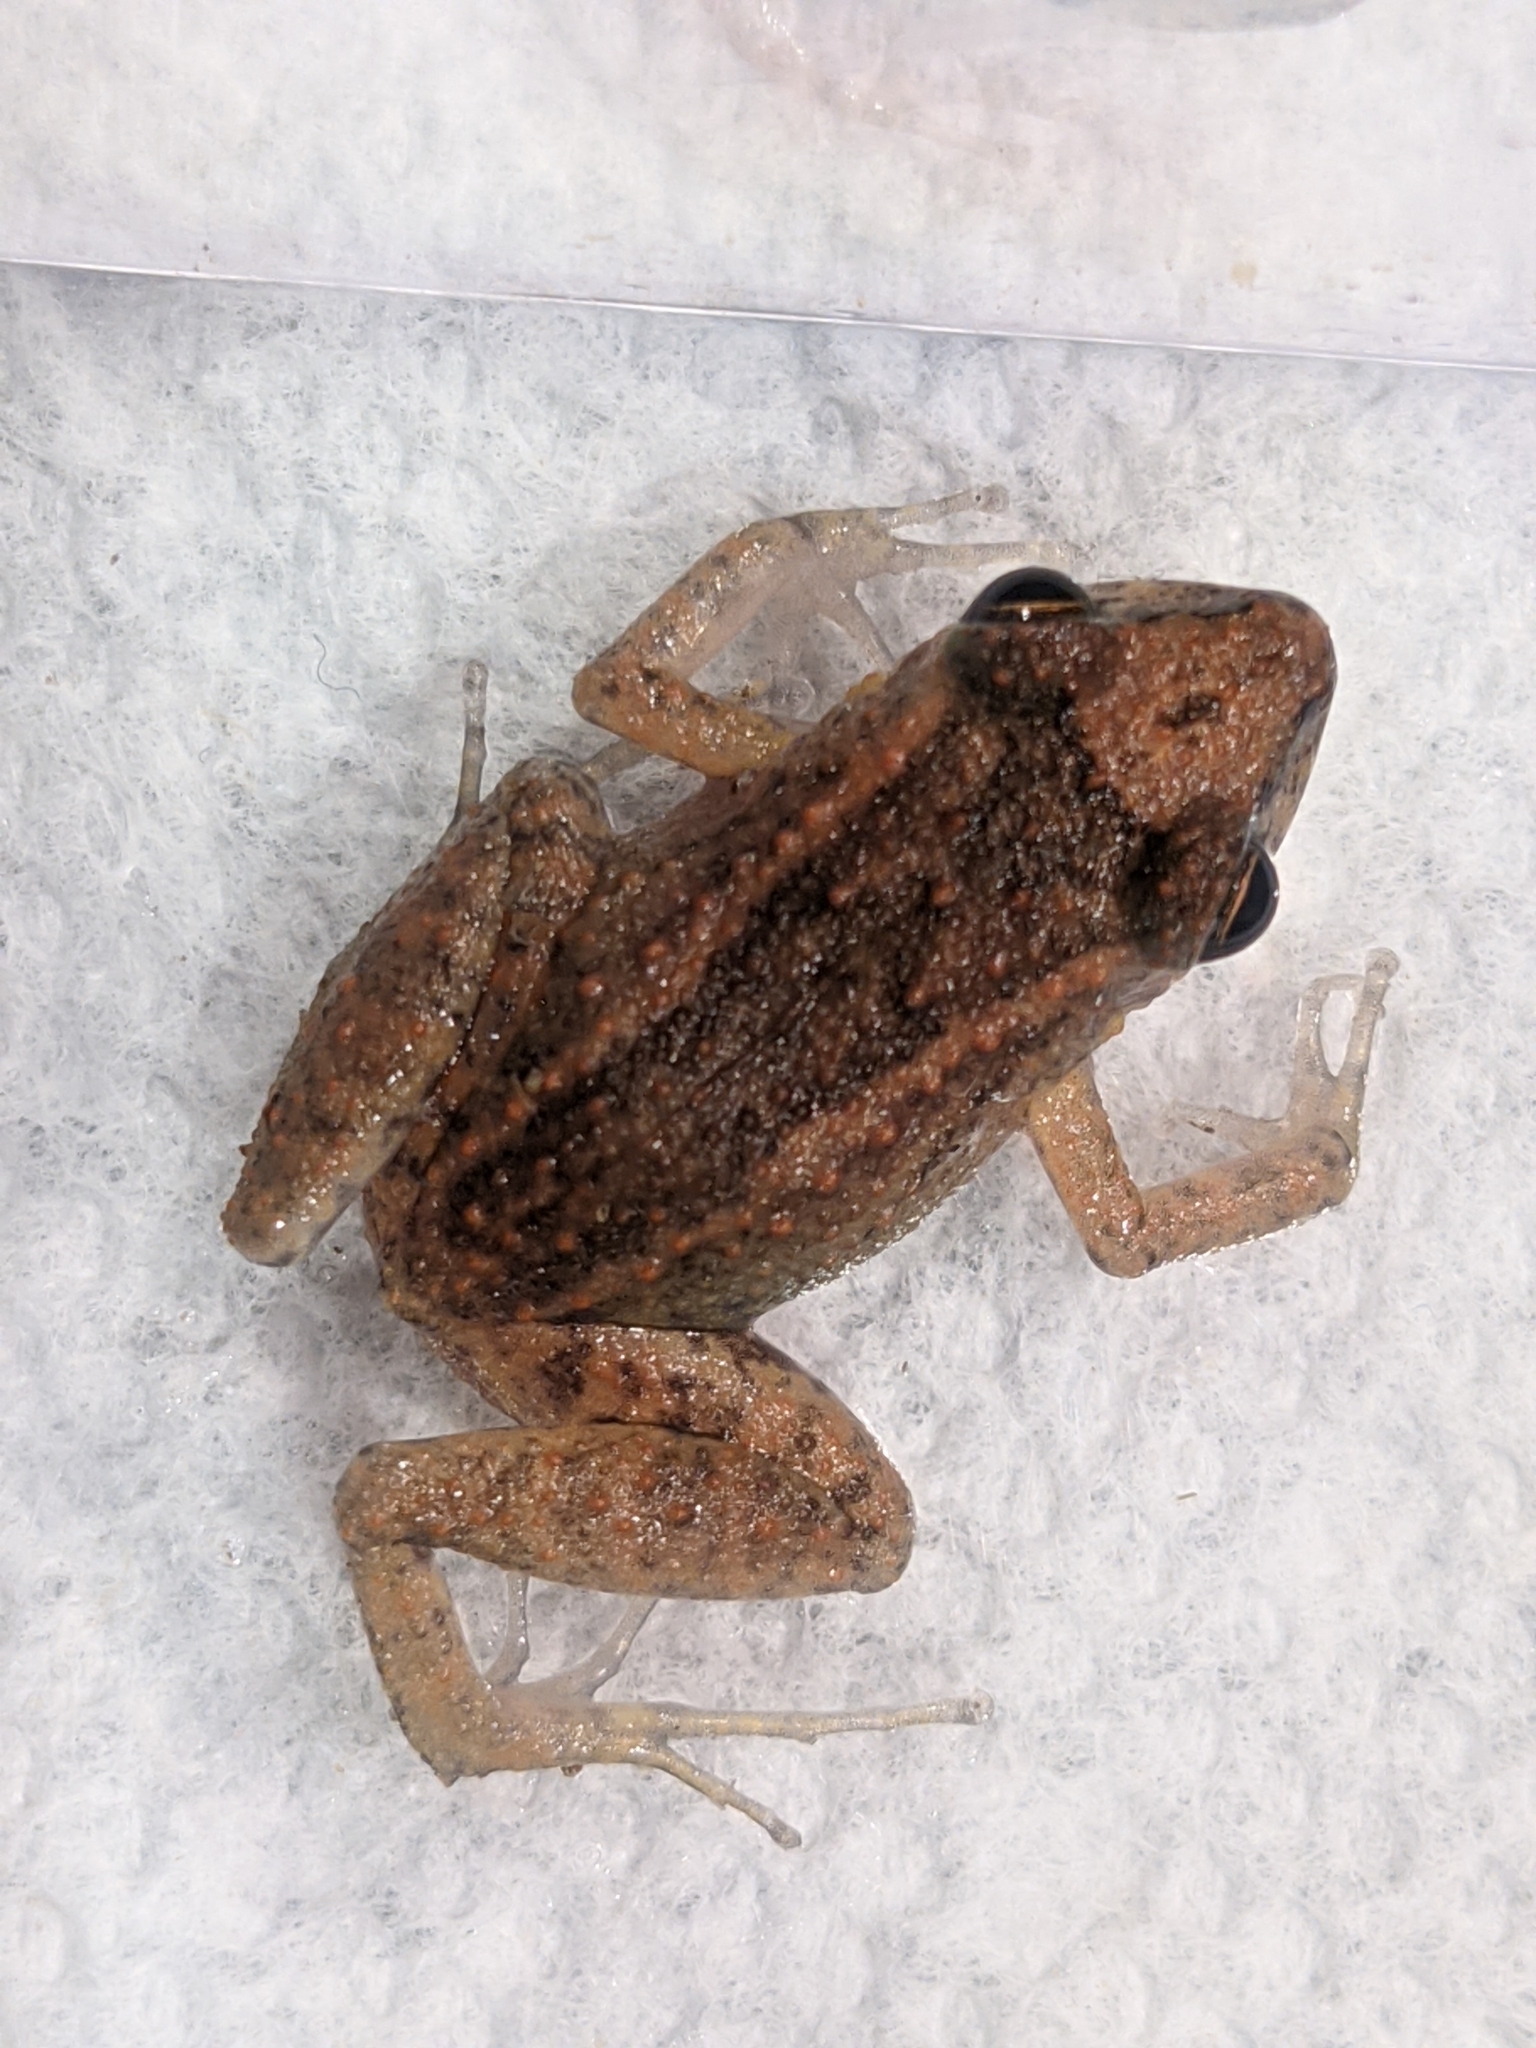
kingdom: Animalia
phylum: Chordata
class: Amphibia
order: Anura
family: Eleutherodactylidae
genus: Eleutherodactylus
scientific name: Eleutherodactylus planirostris
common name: Greenhouse frog
